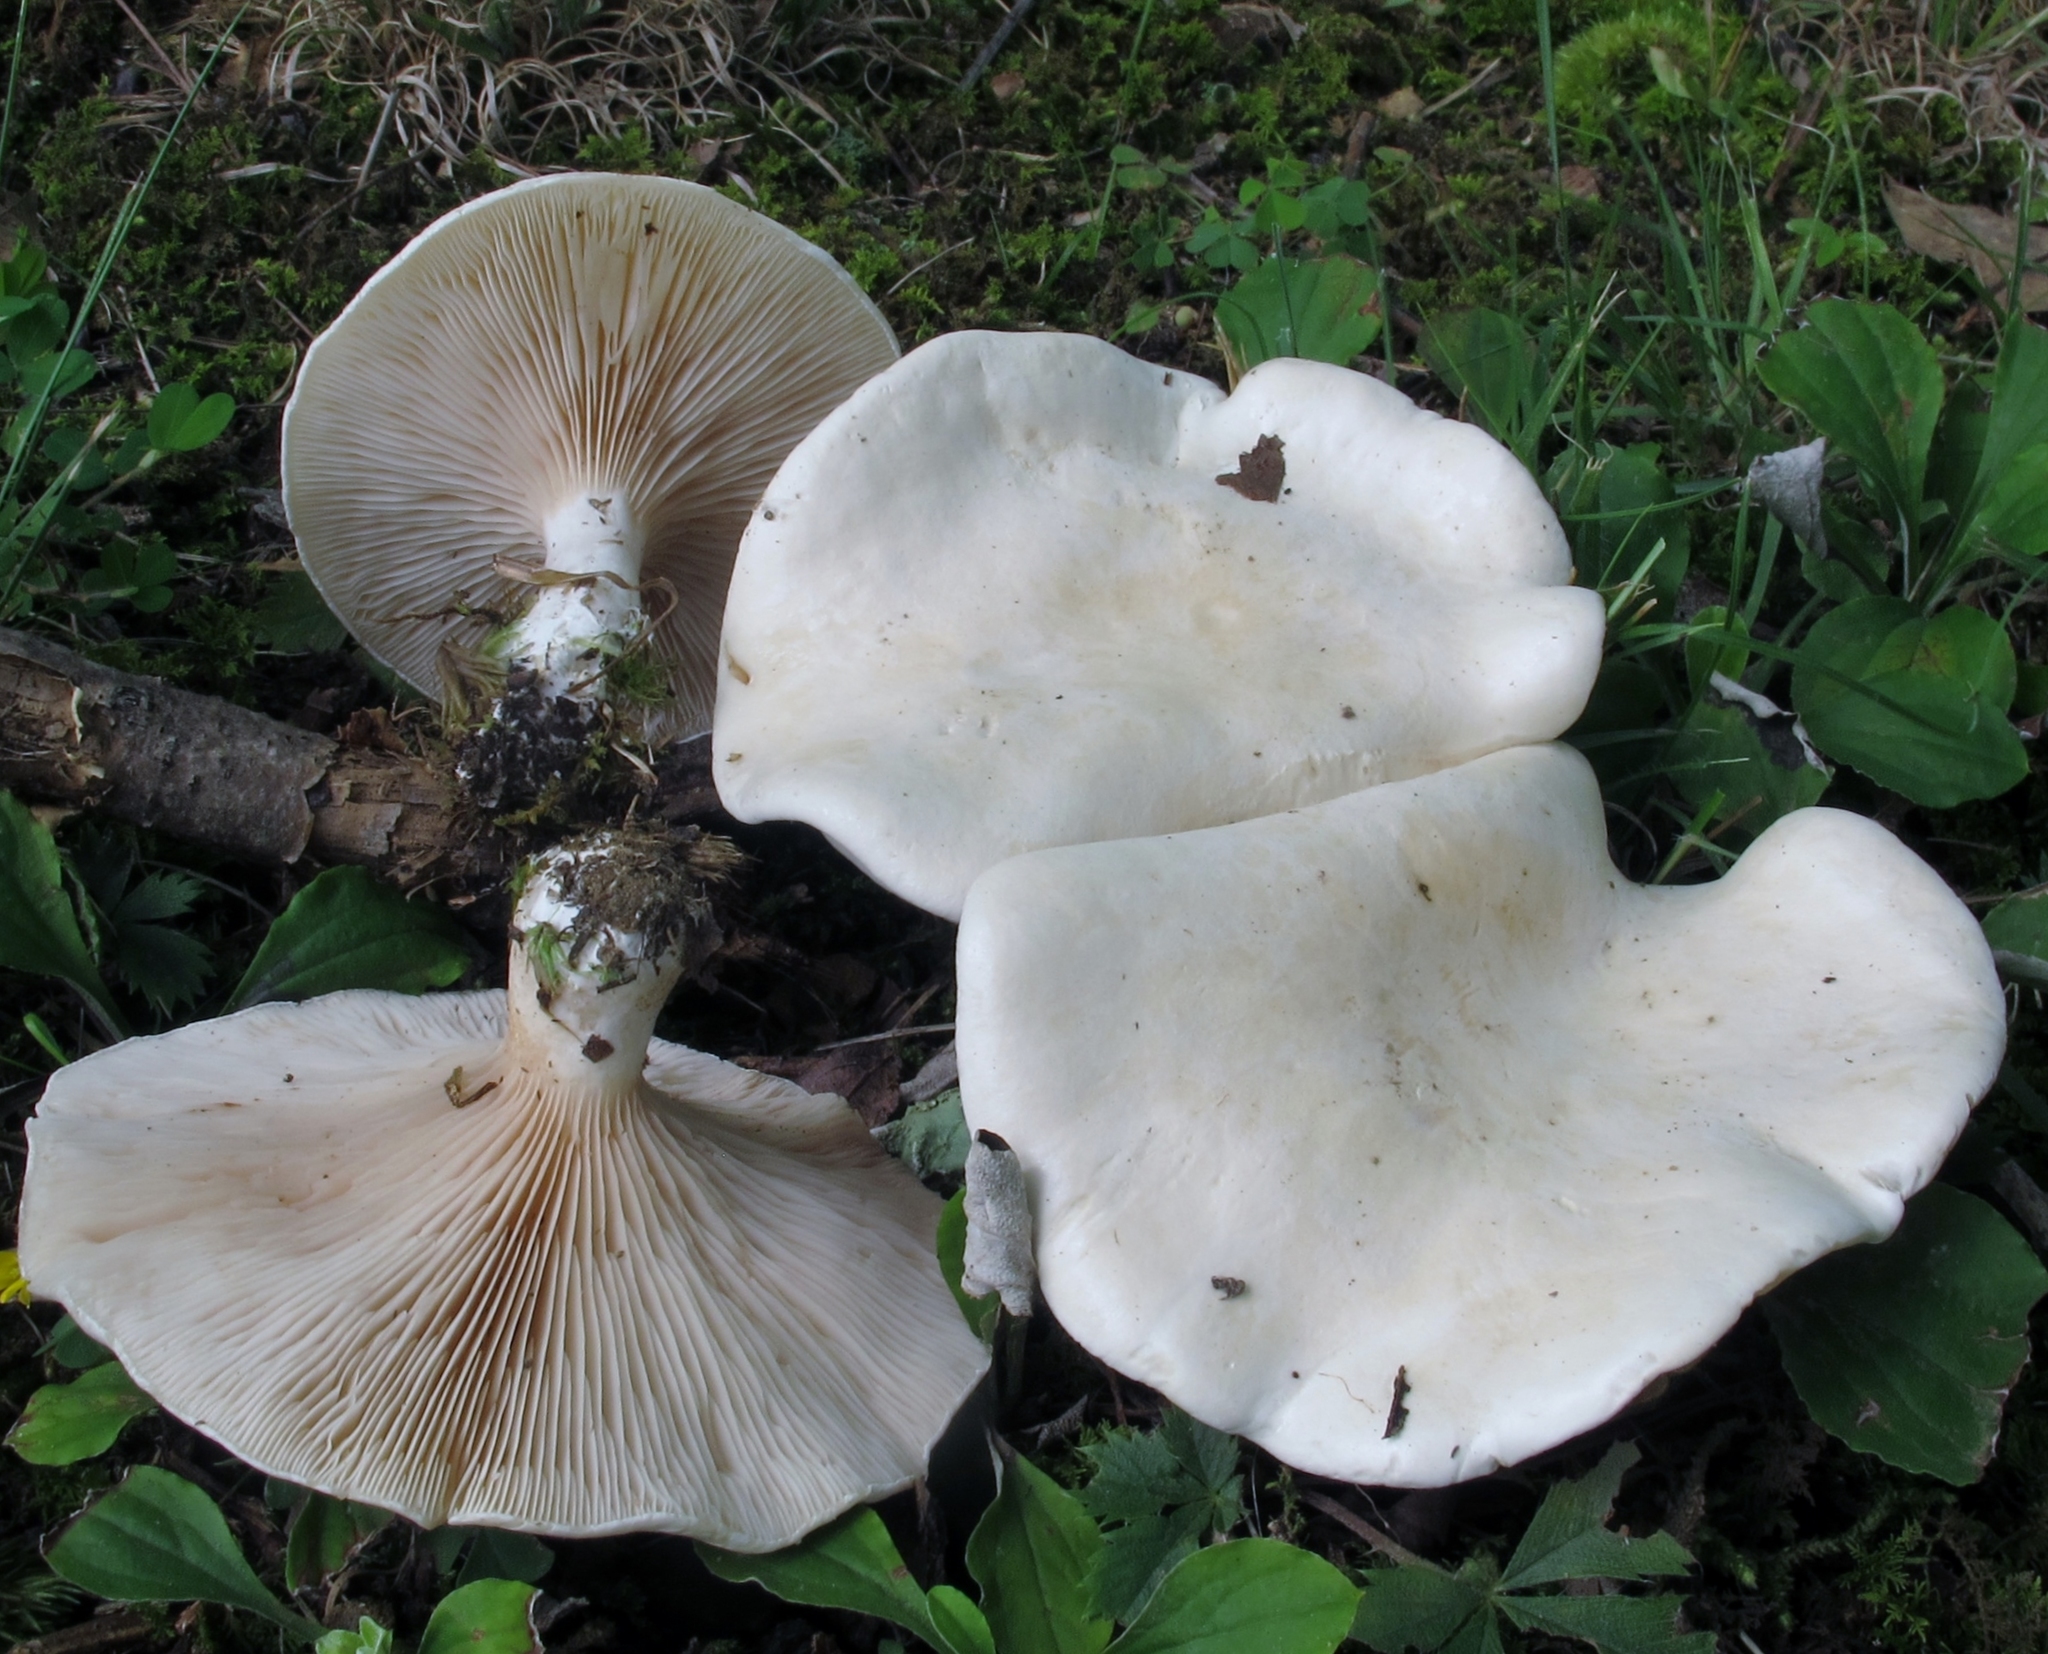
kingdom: Fungi
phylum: Basidiomycota
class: Agaricomycetes
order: Agaricales
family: Entolomataceae
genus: Clitopilus
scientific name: Clitopilus prunulus
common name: The miller
